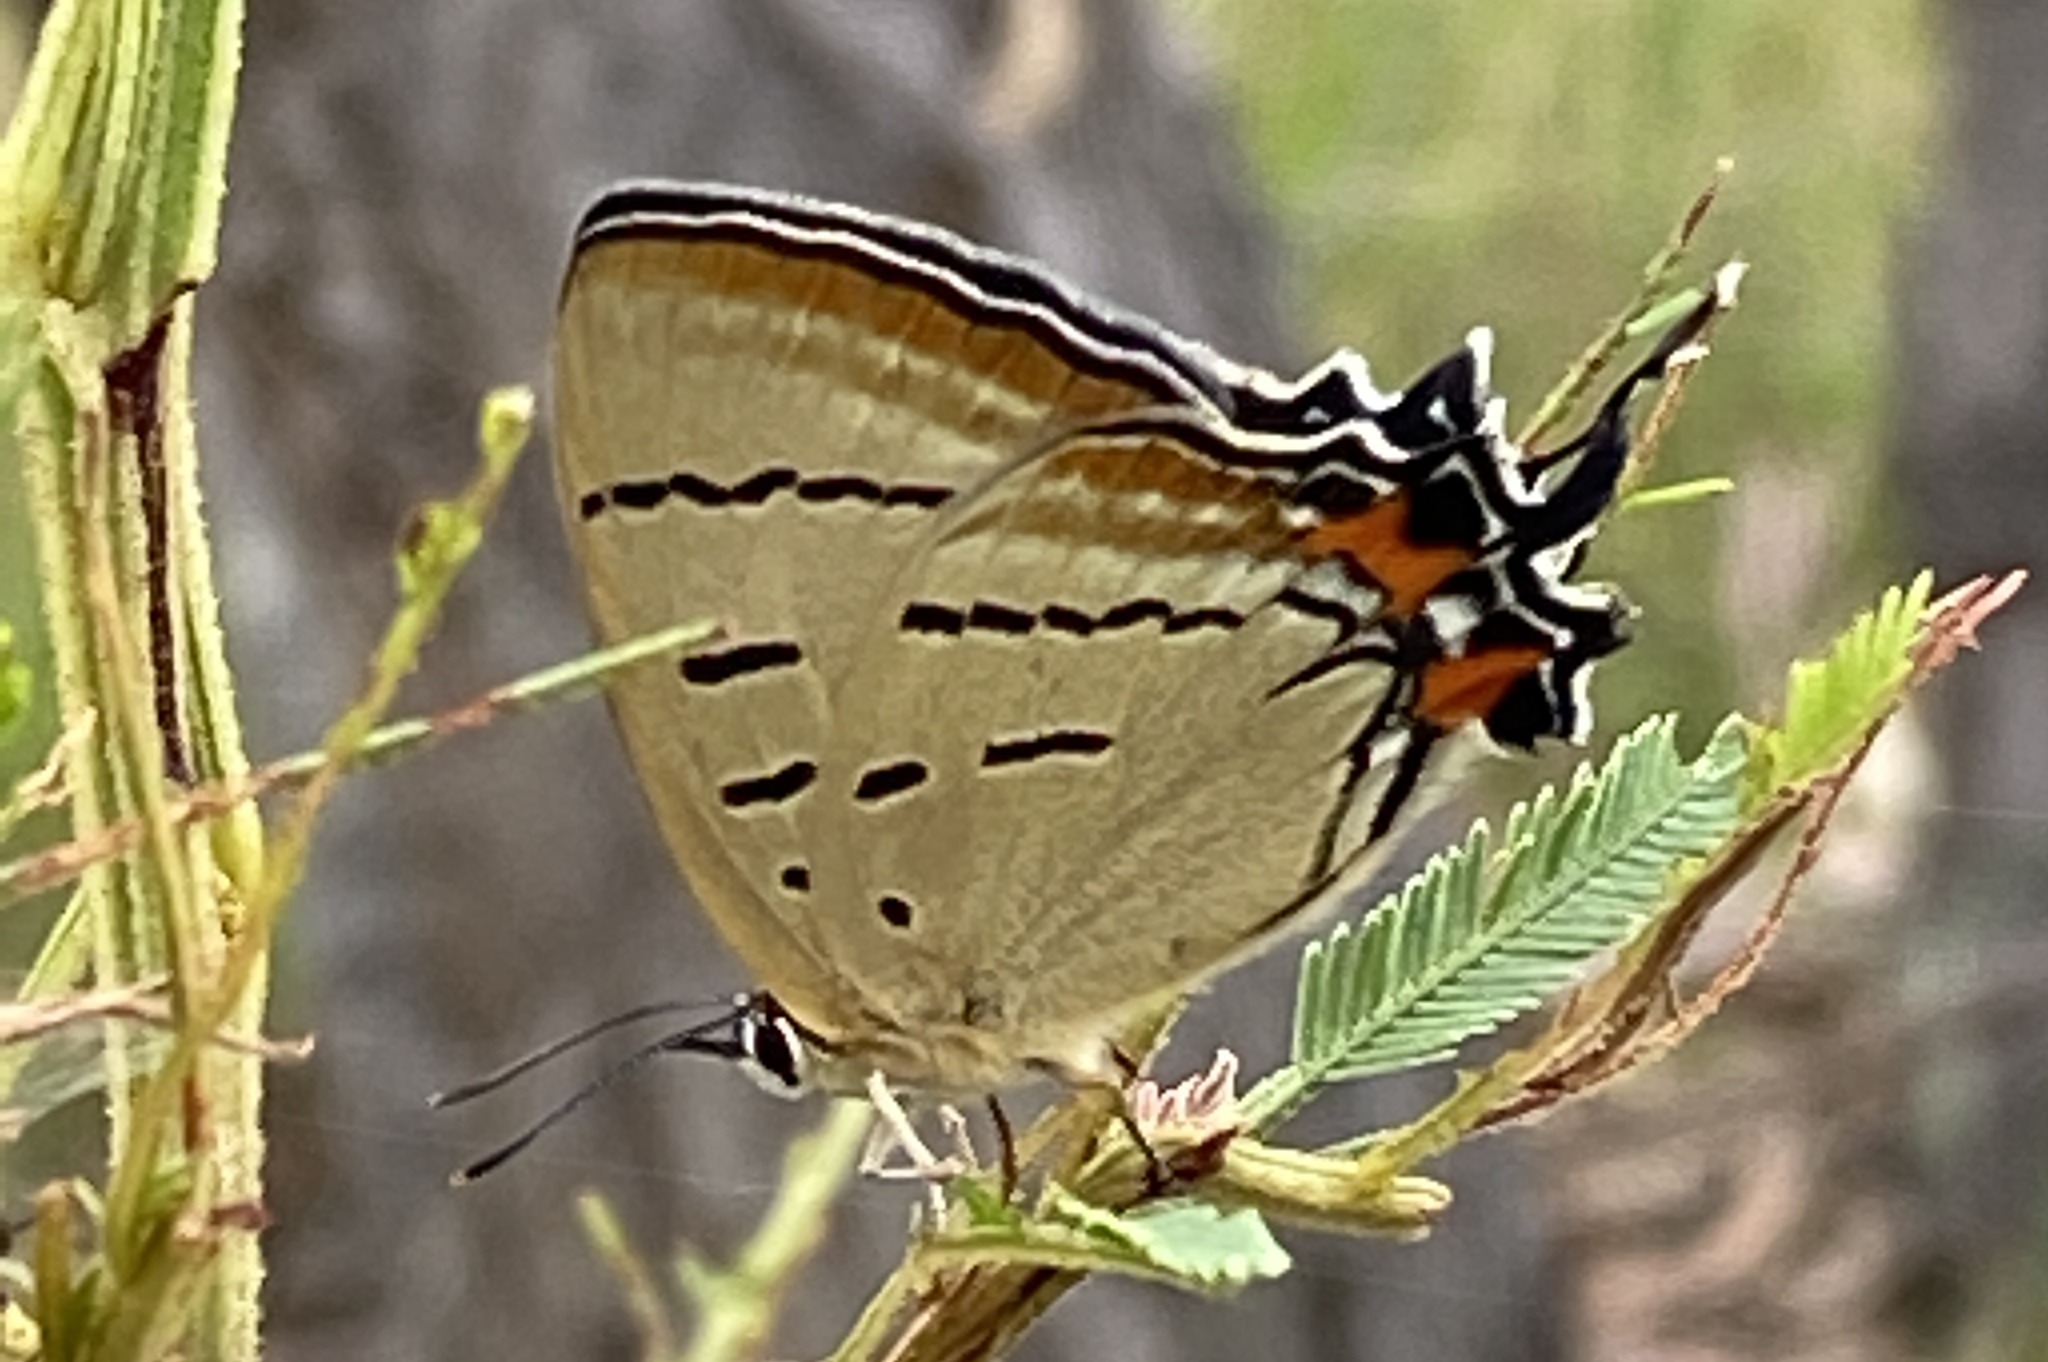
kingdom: Animalia
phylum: Arthropoda
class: Insecta
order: Lepidoptera
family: Lycaenidae
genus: Jalmenus
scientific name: Jalmenus evagoras
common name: Common imperial blue
